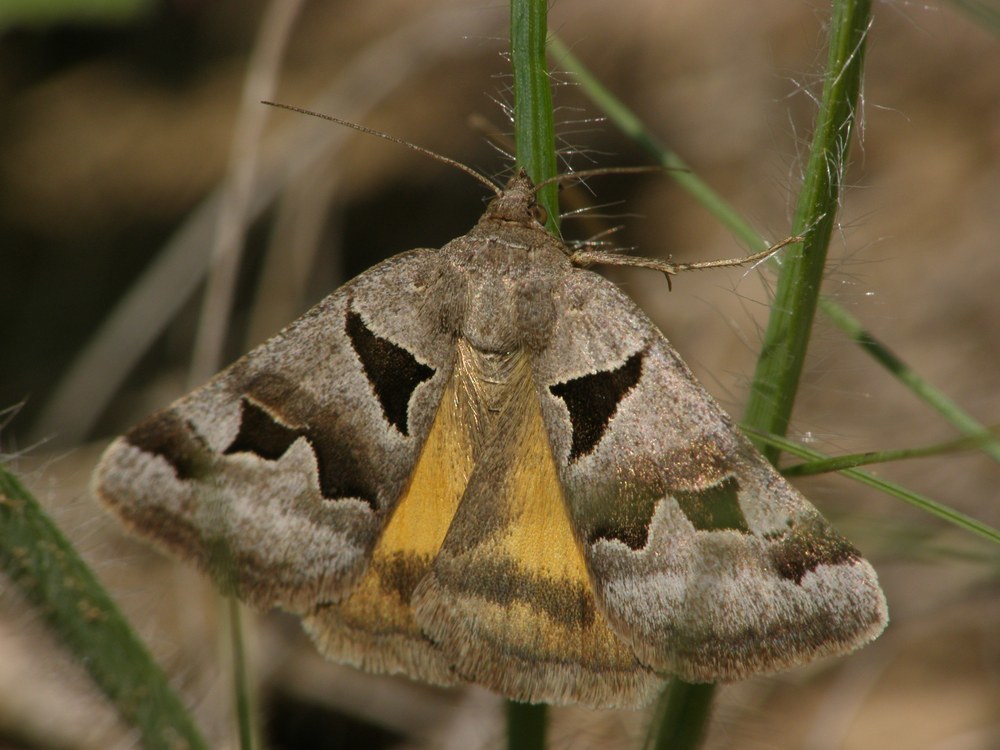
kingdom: Animalia
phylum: Arthropoda
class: Insecta
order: Lepidoptera
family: Erebidae
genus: Euclidia
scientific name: Euclidia triquetra
